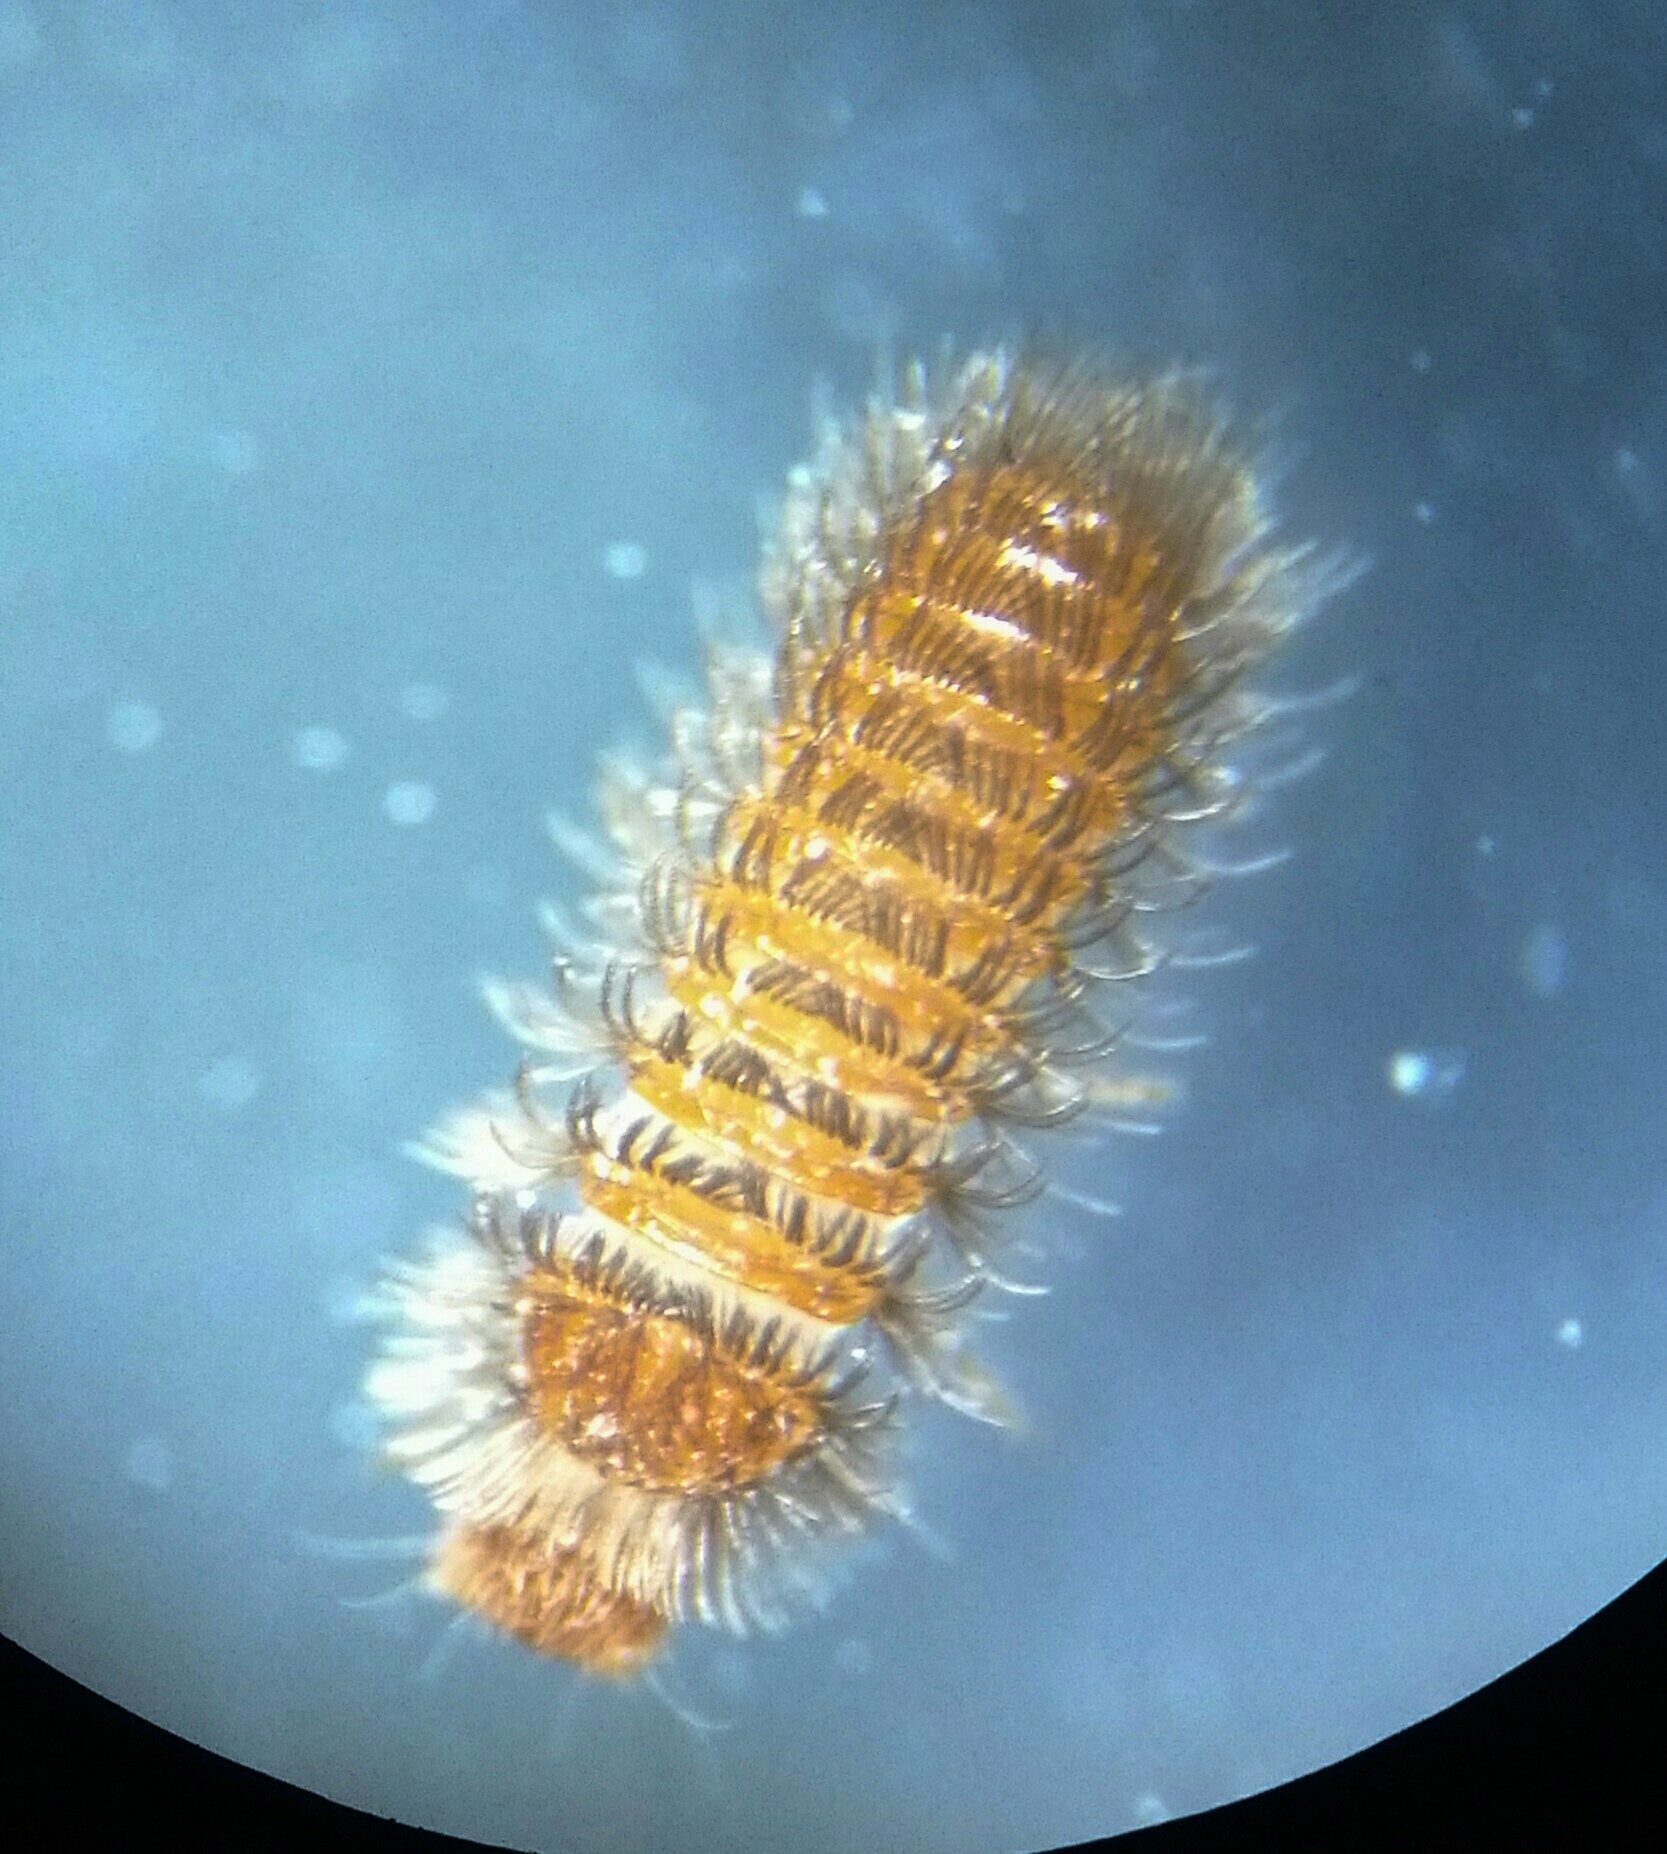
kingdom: Animalia
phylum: Arthropoda
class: Insecta
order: Coleoptera
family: Dermestidae
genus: Thylodrias
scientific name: Thylodrias contractus
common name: Odd beetle
